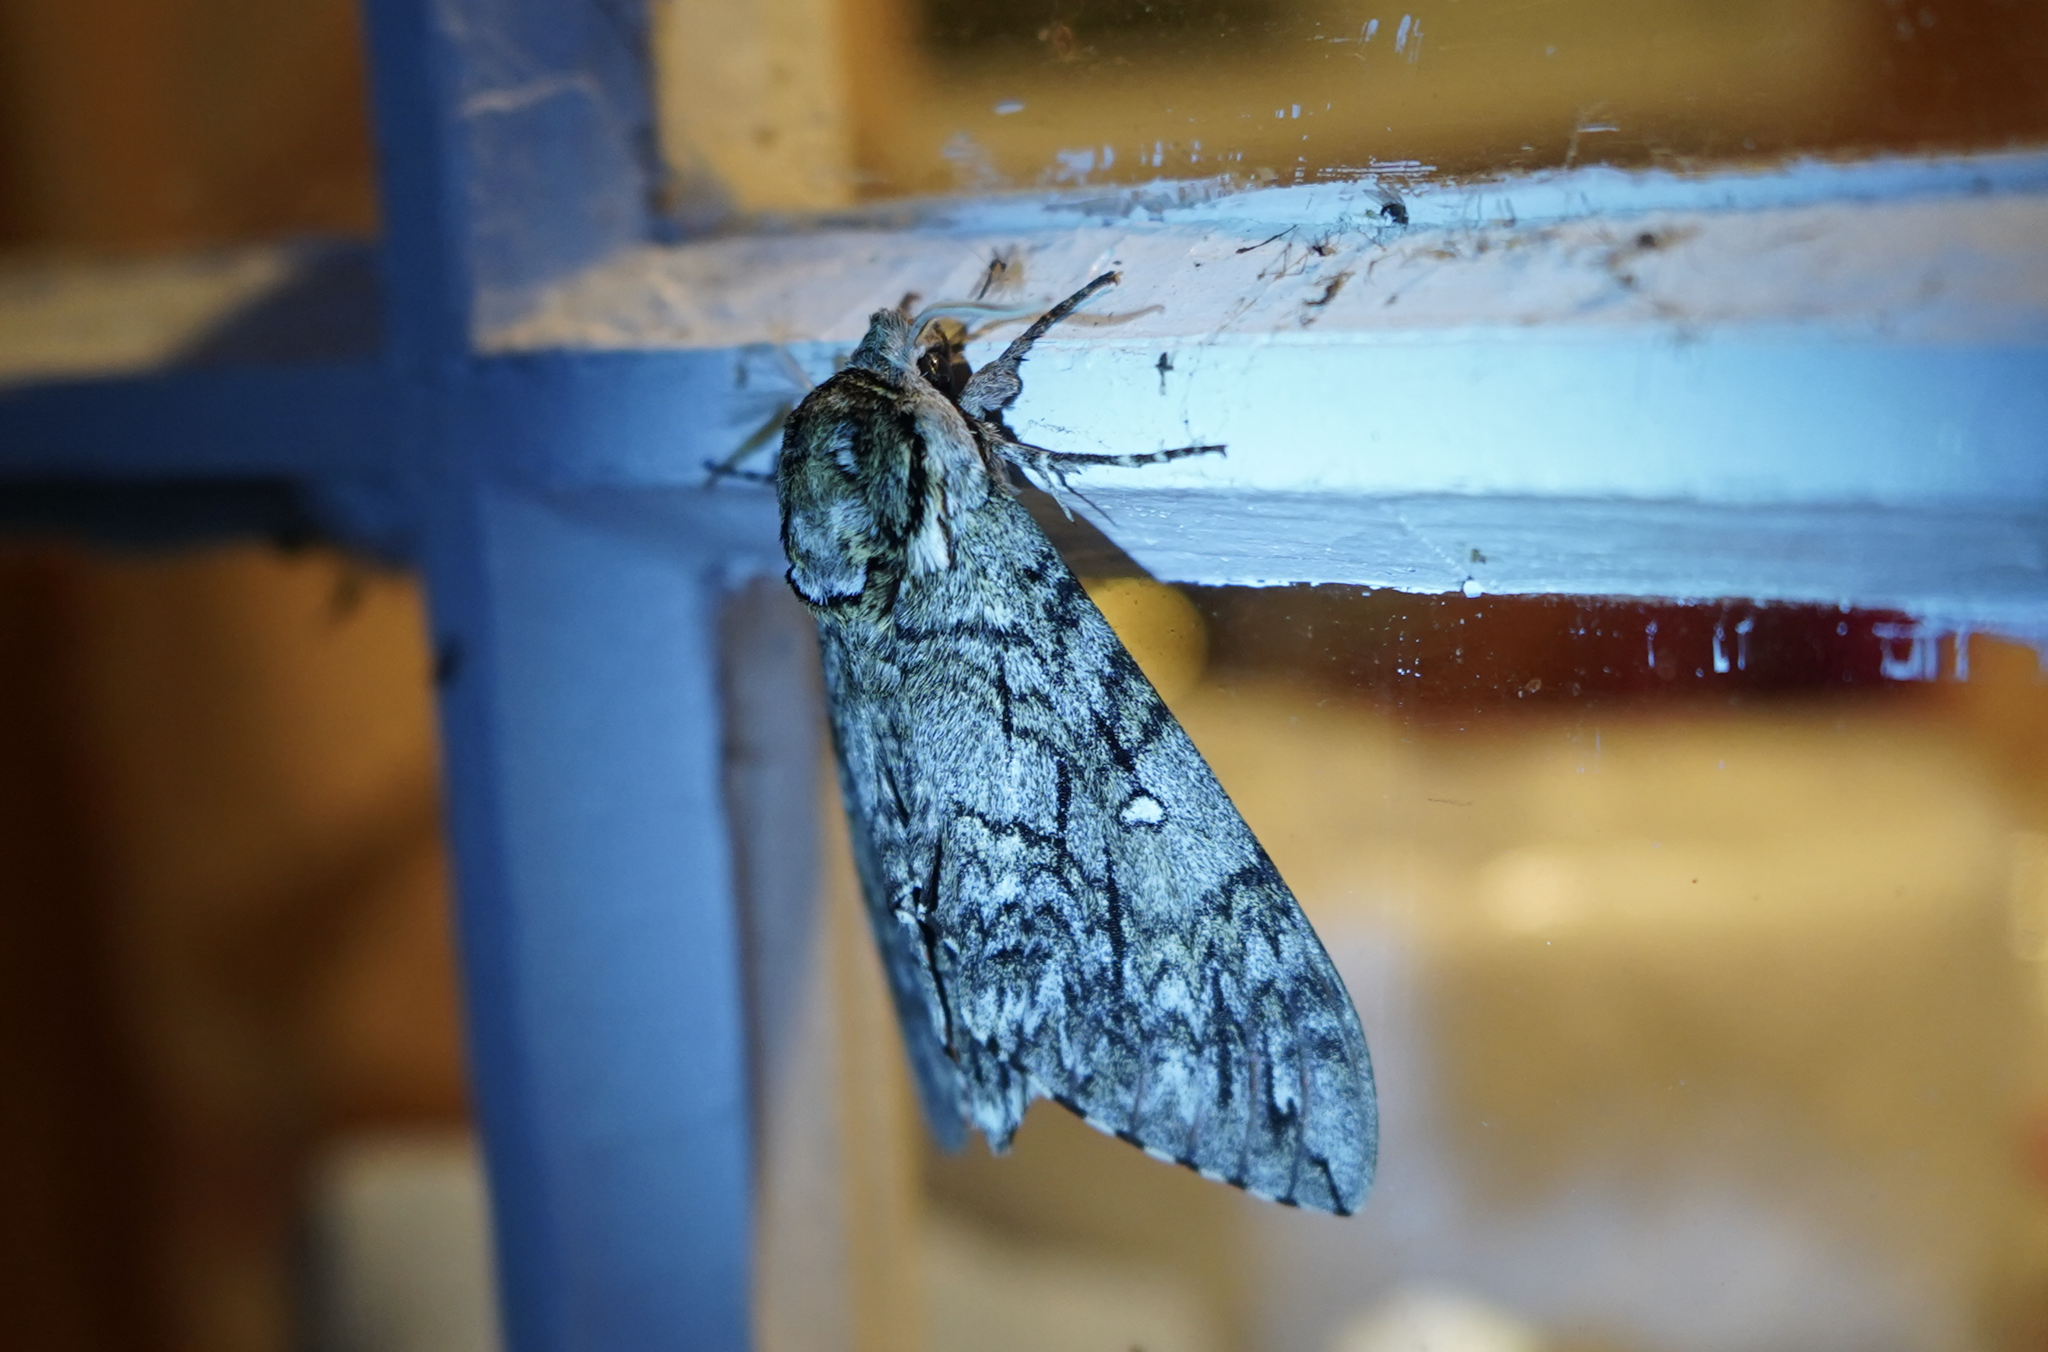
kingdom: Animalia
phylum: Arthropoda
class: Insecta
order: Lepidoptera
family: Sphingidae
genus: Ceratomia
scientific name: Ceratomia undulosa
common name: Waved sphinx
